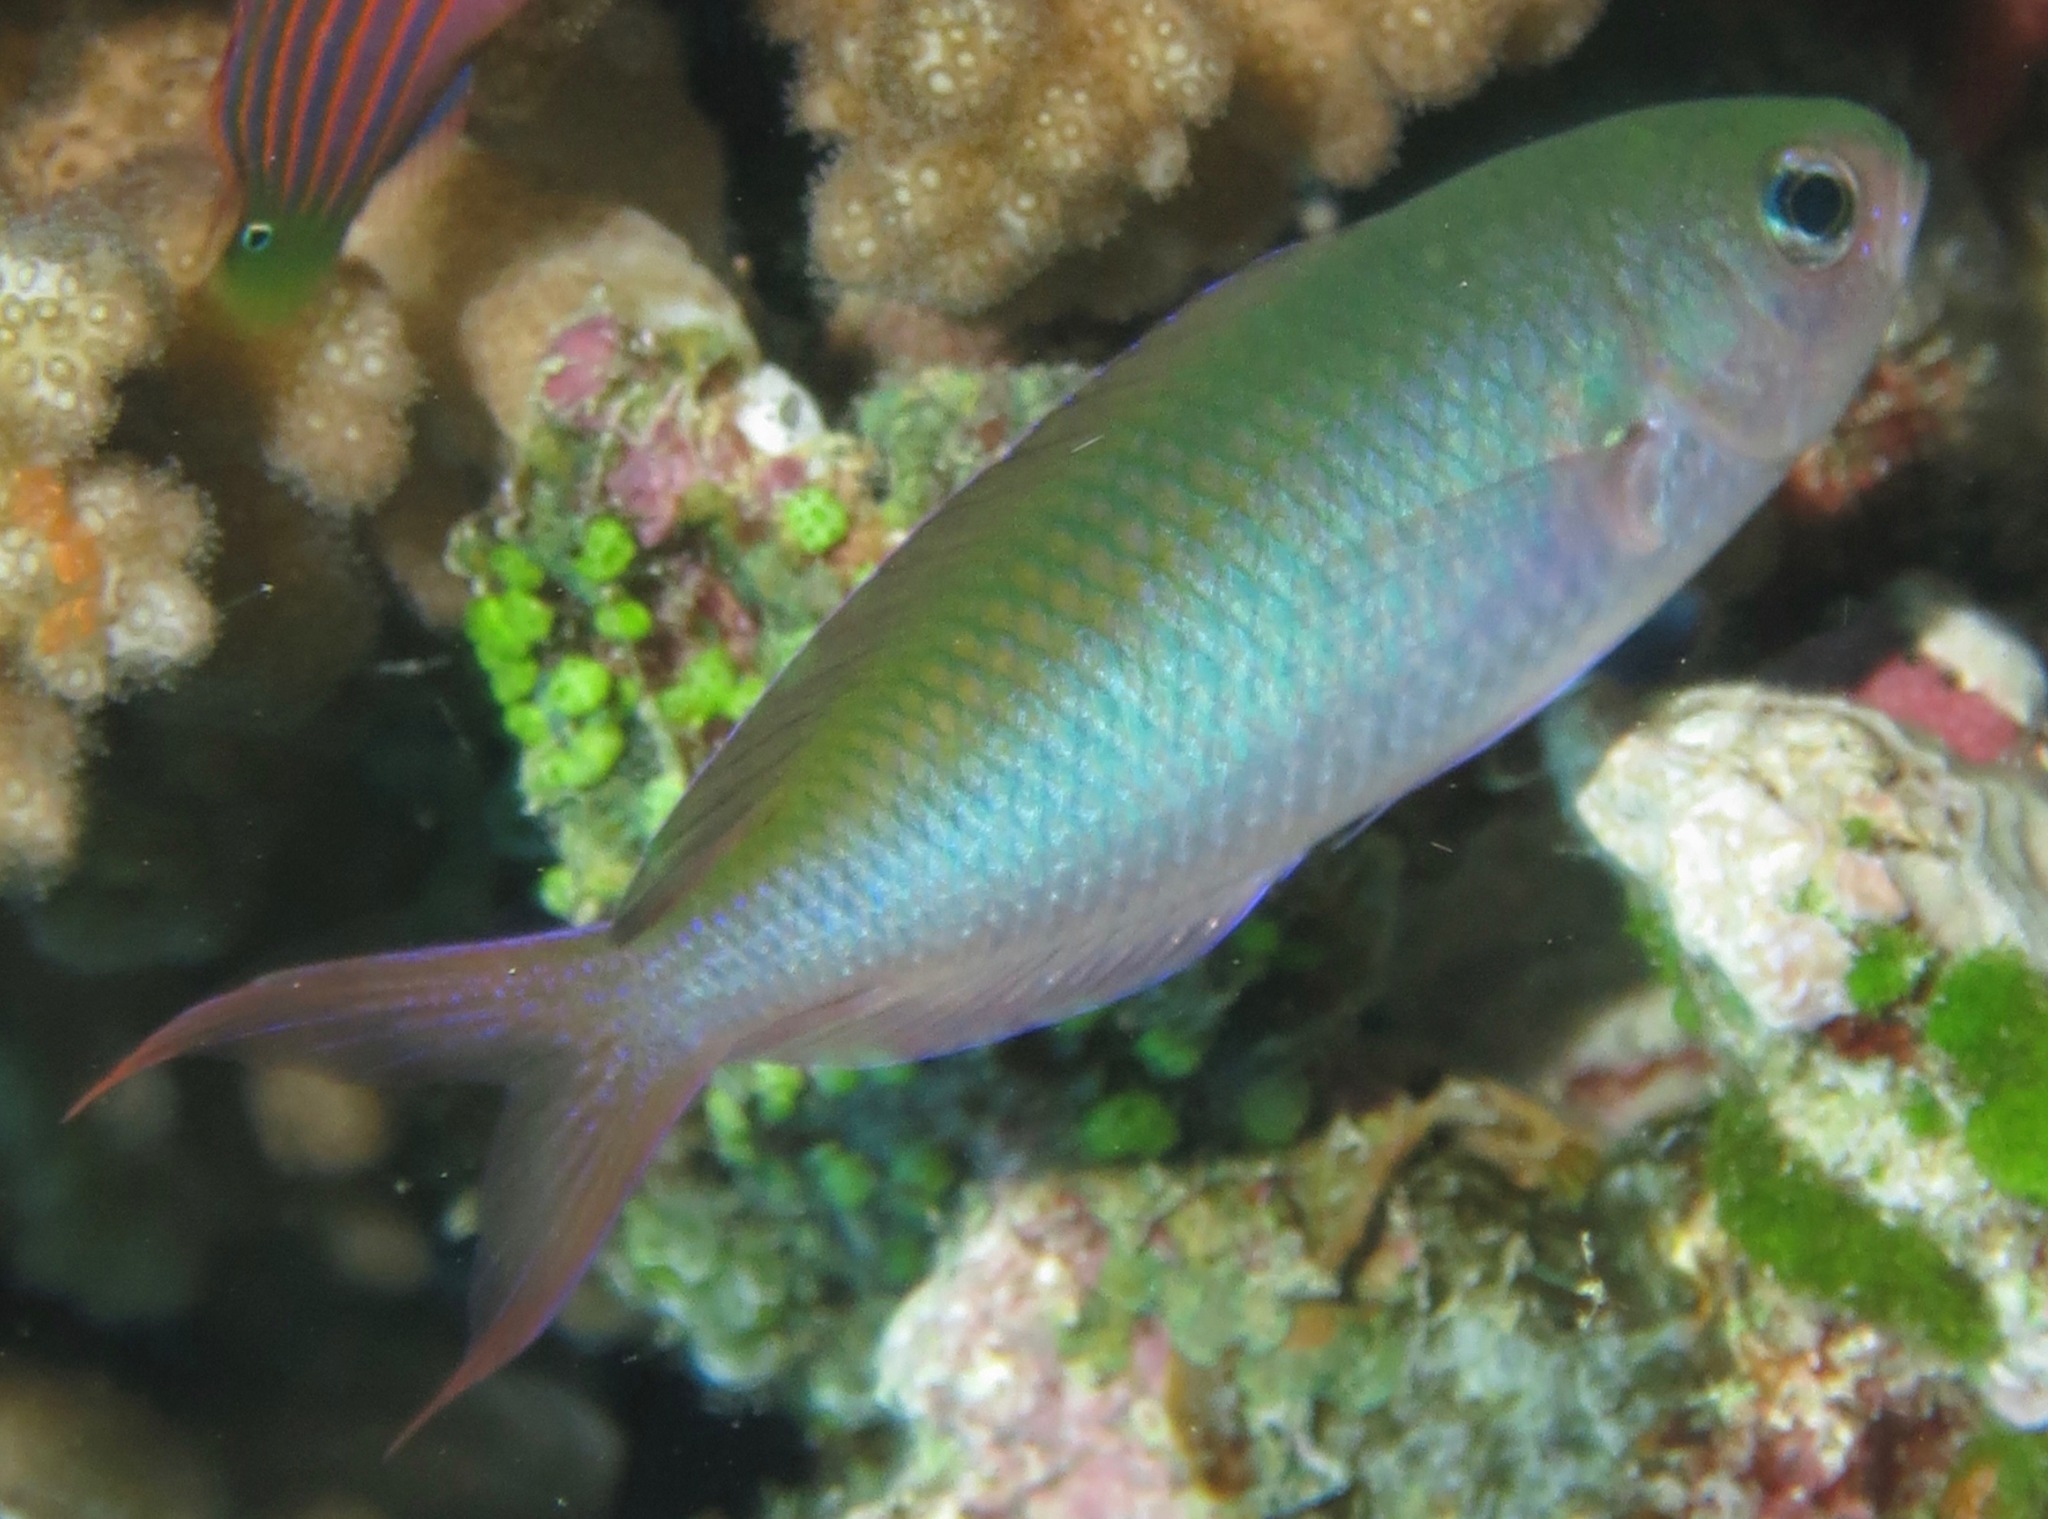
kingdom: Animalia
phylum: Chordata
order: Perciformes
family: Pomacentridae
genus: Lepidozygus
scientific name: Lepidozygus tapeinosoma
